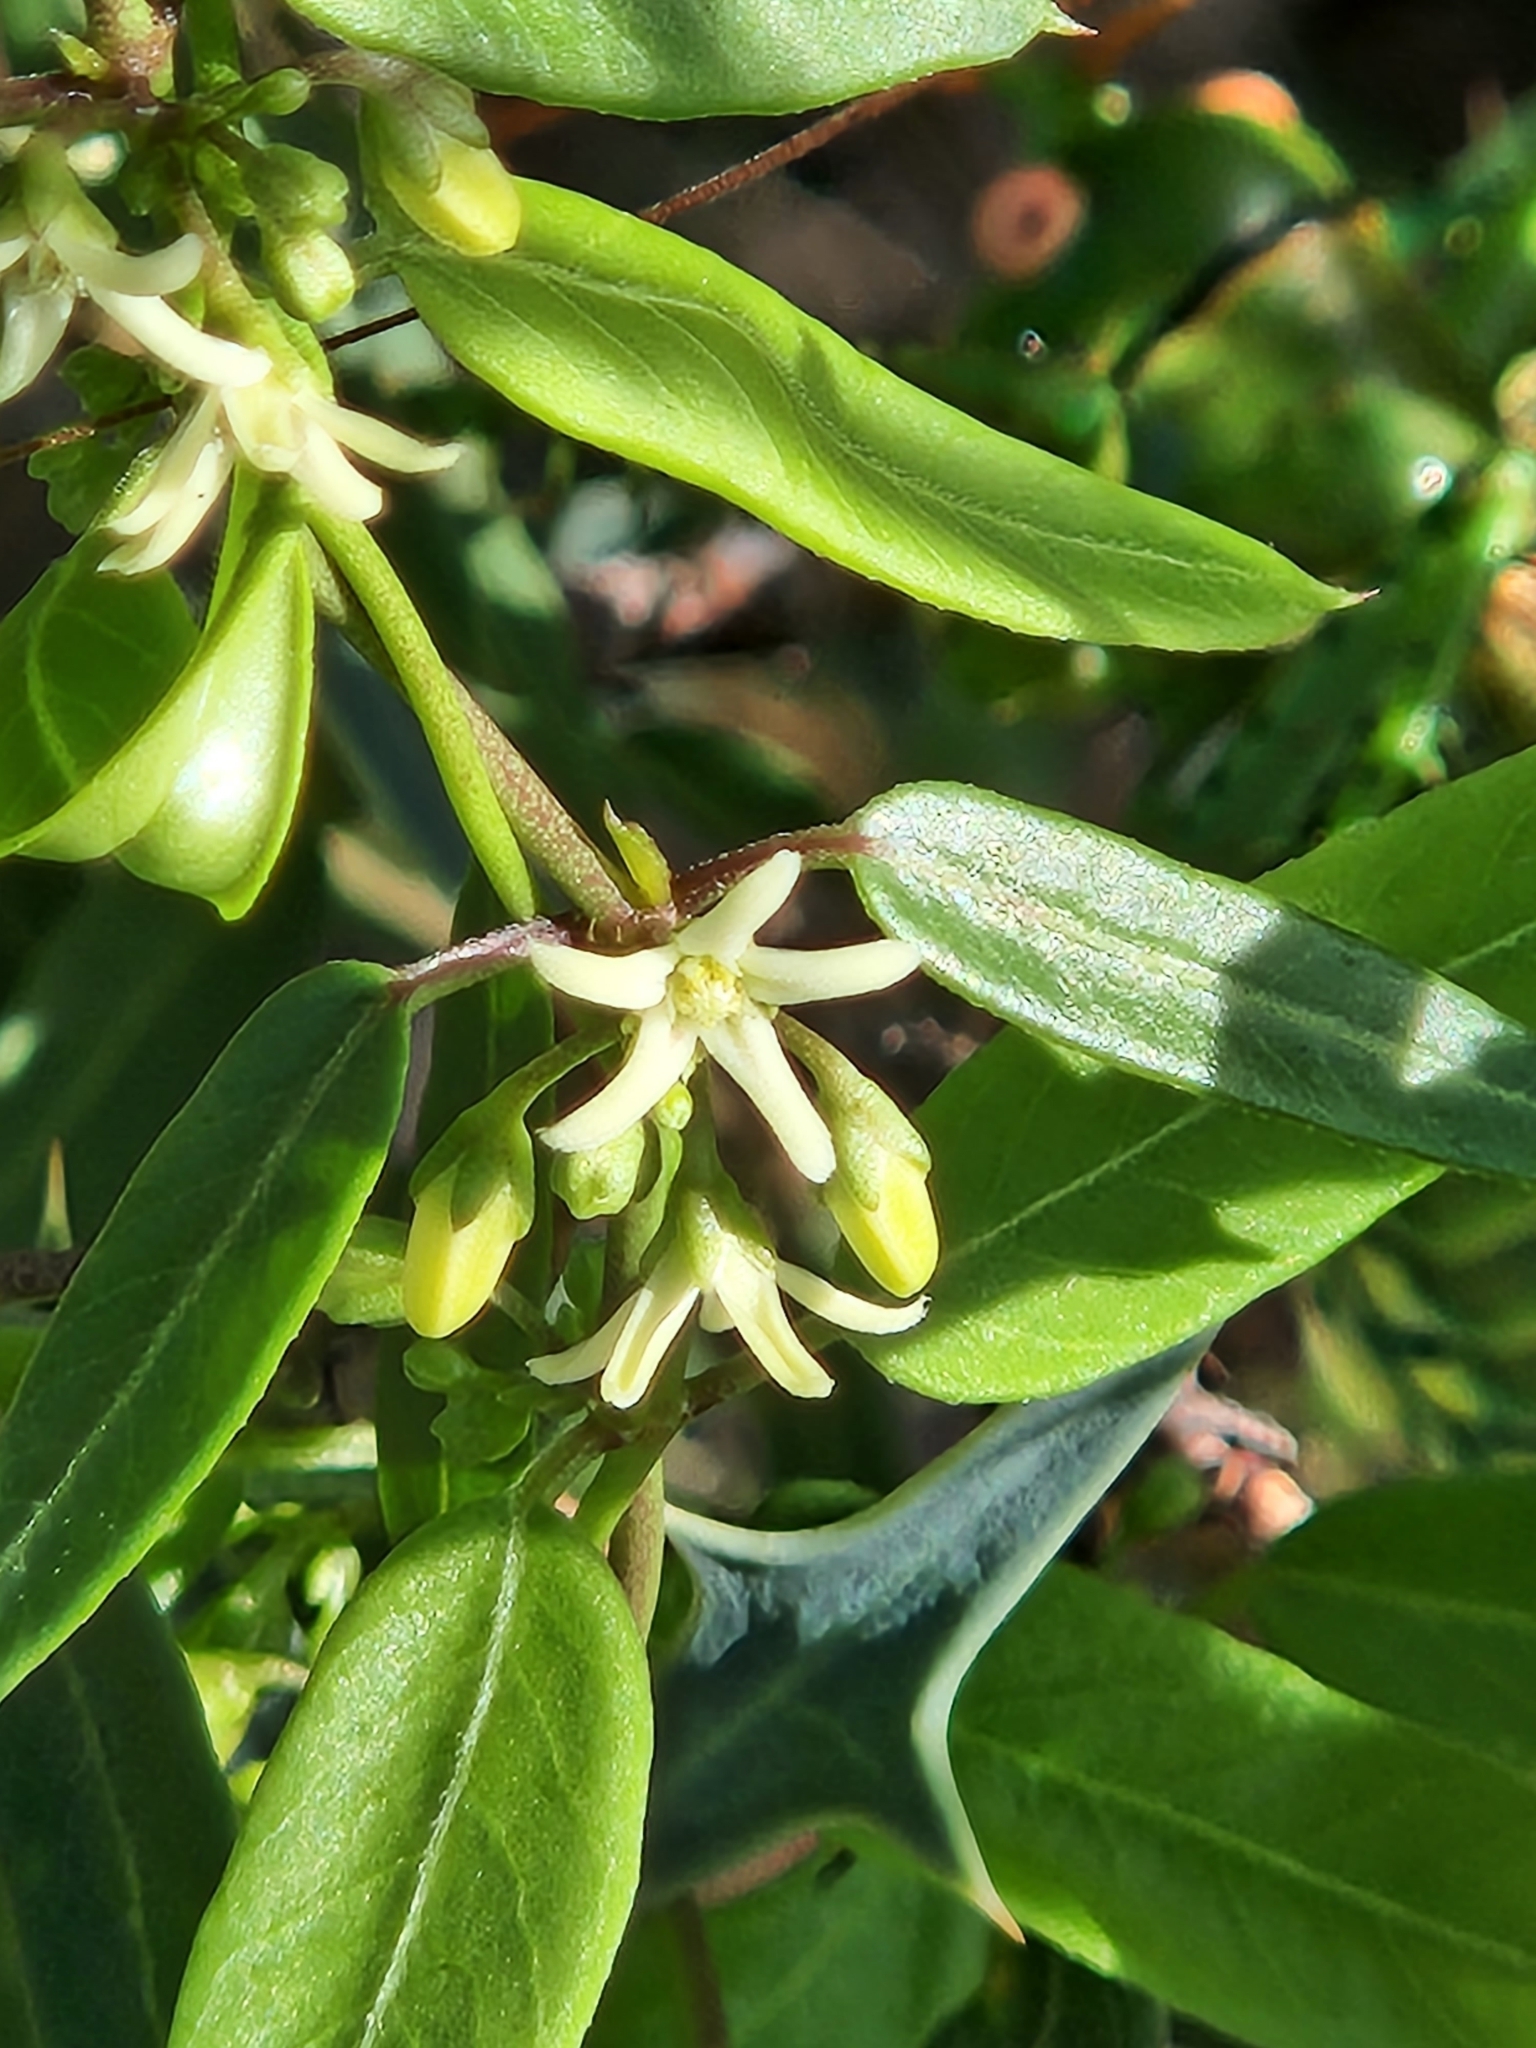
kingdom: Plantae
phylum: Tracheophyta
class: Magnoliopsida
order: Gentianales
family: Apocynaceae
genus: Metastelma
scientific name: Metastelma palmeri
